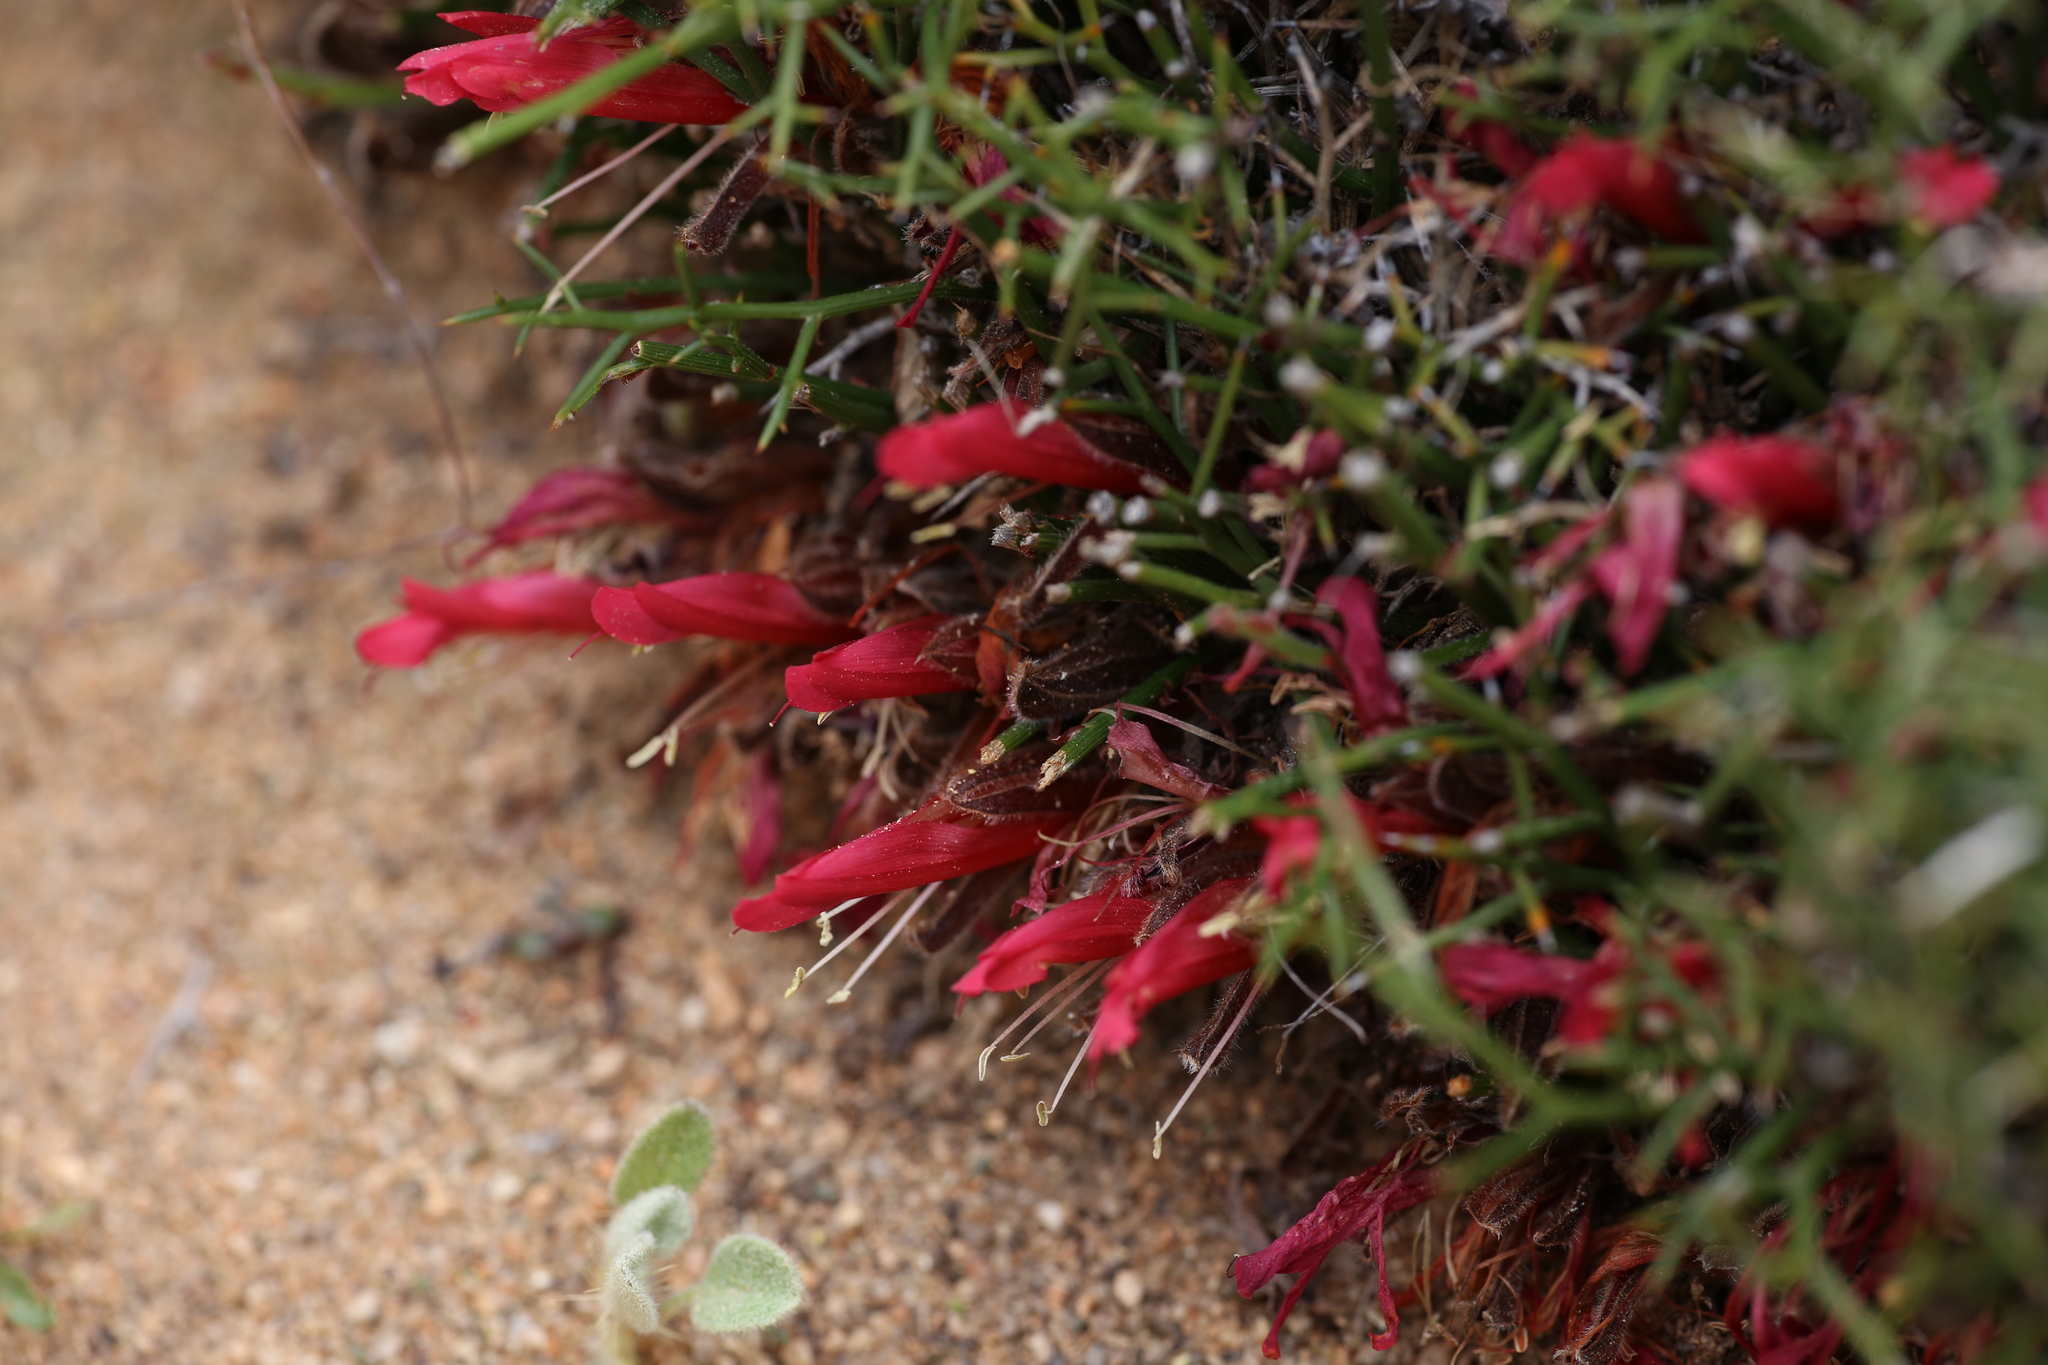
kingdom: Plantae
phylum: Tracheophyta
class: Magnoliopsida
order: Fabales
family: Fabaceae
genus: Leptosema
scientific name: Leptosema daviesioides
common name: Upside-down pea-bush
